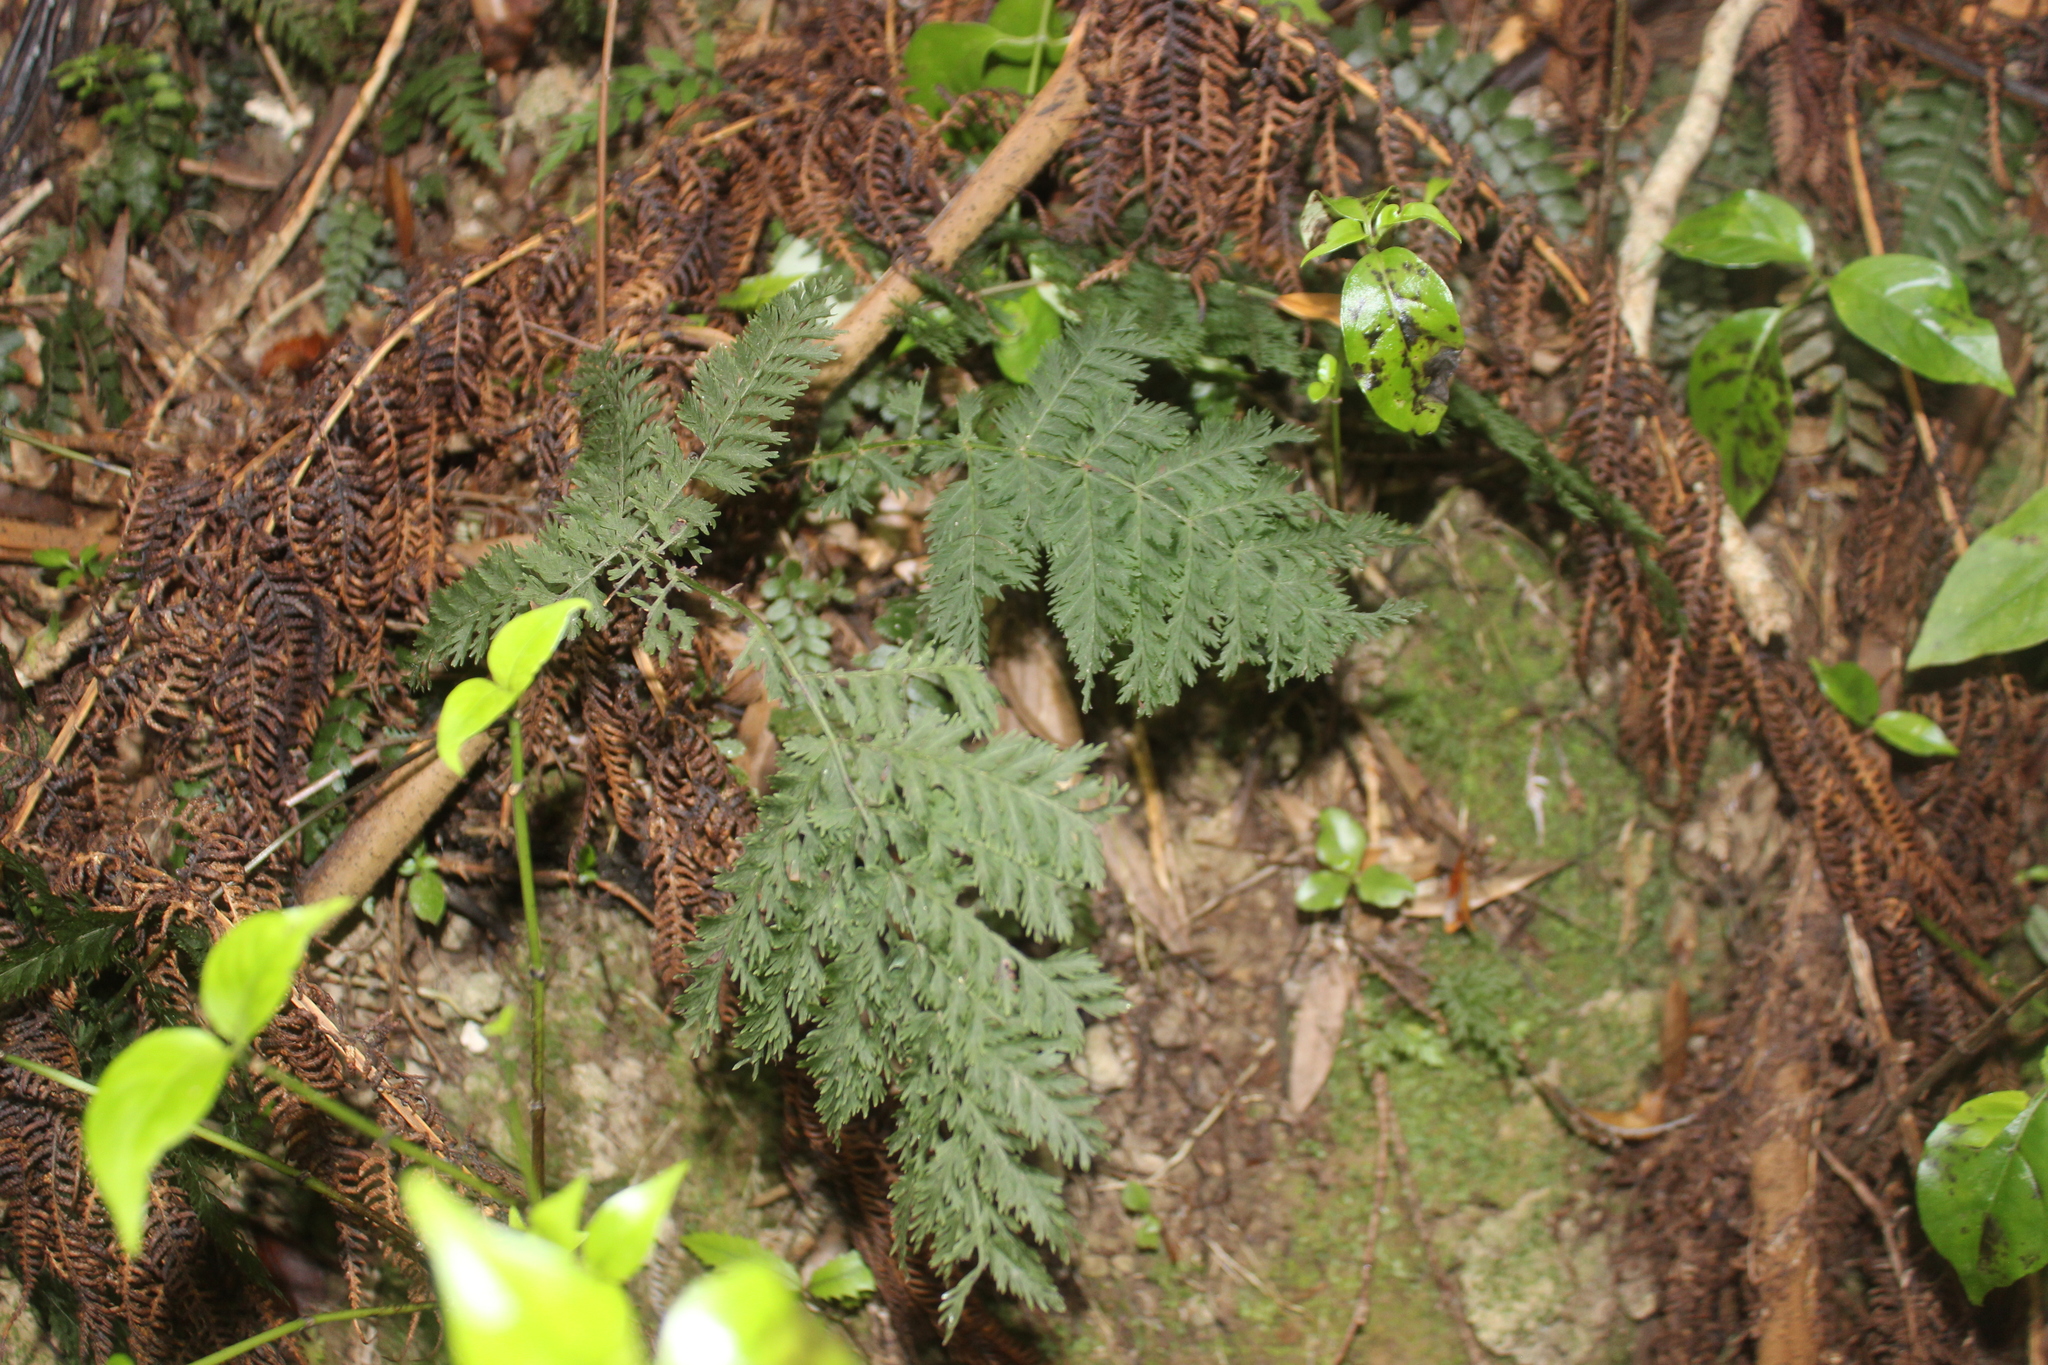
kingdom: Plantae
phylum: Tracheophyta
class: Polypodiopsida
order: Osmundales
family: Osmundaceae
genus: Leptopteris
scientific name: Leptopteris hymenophylloides
